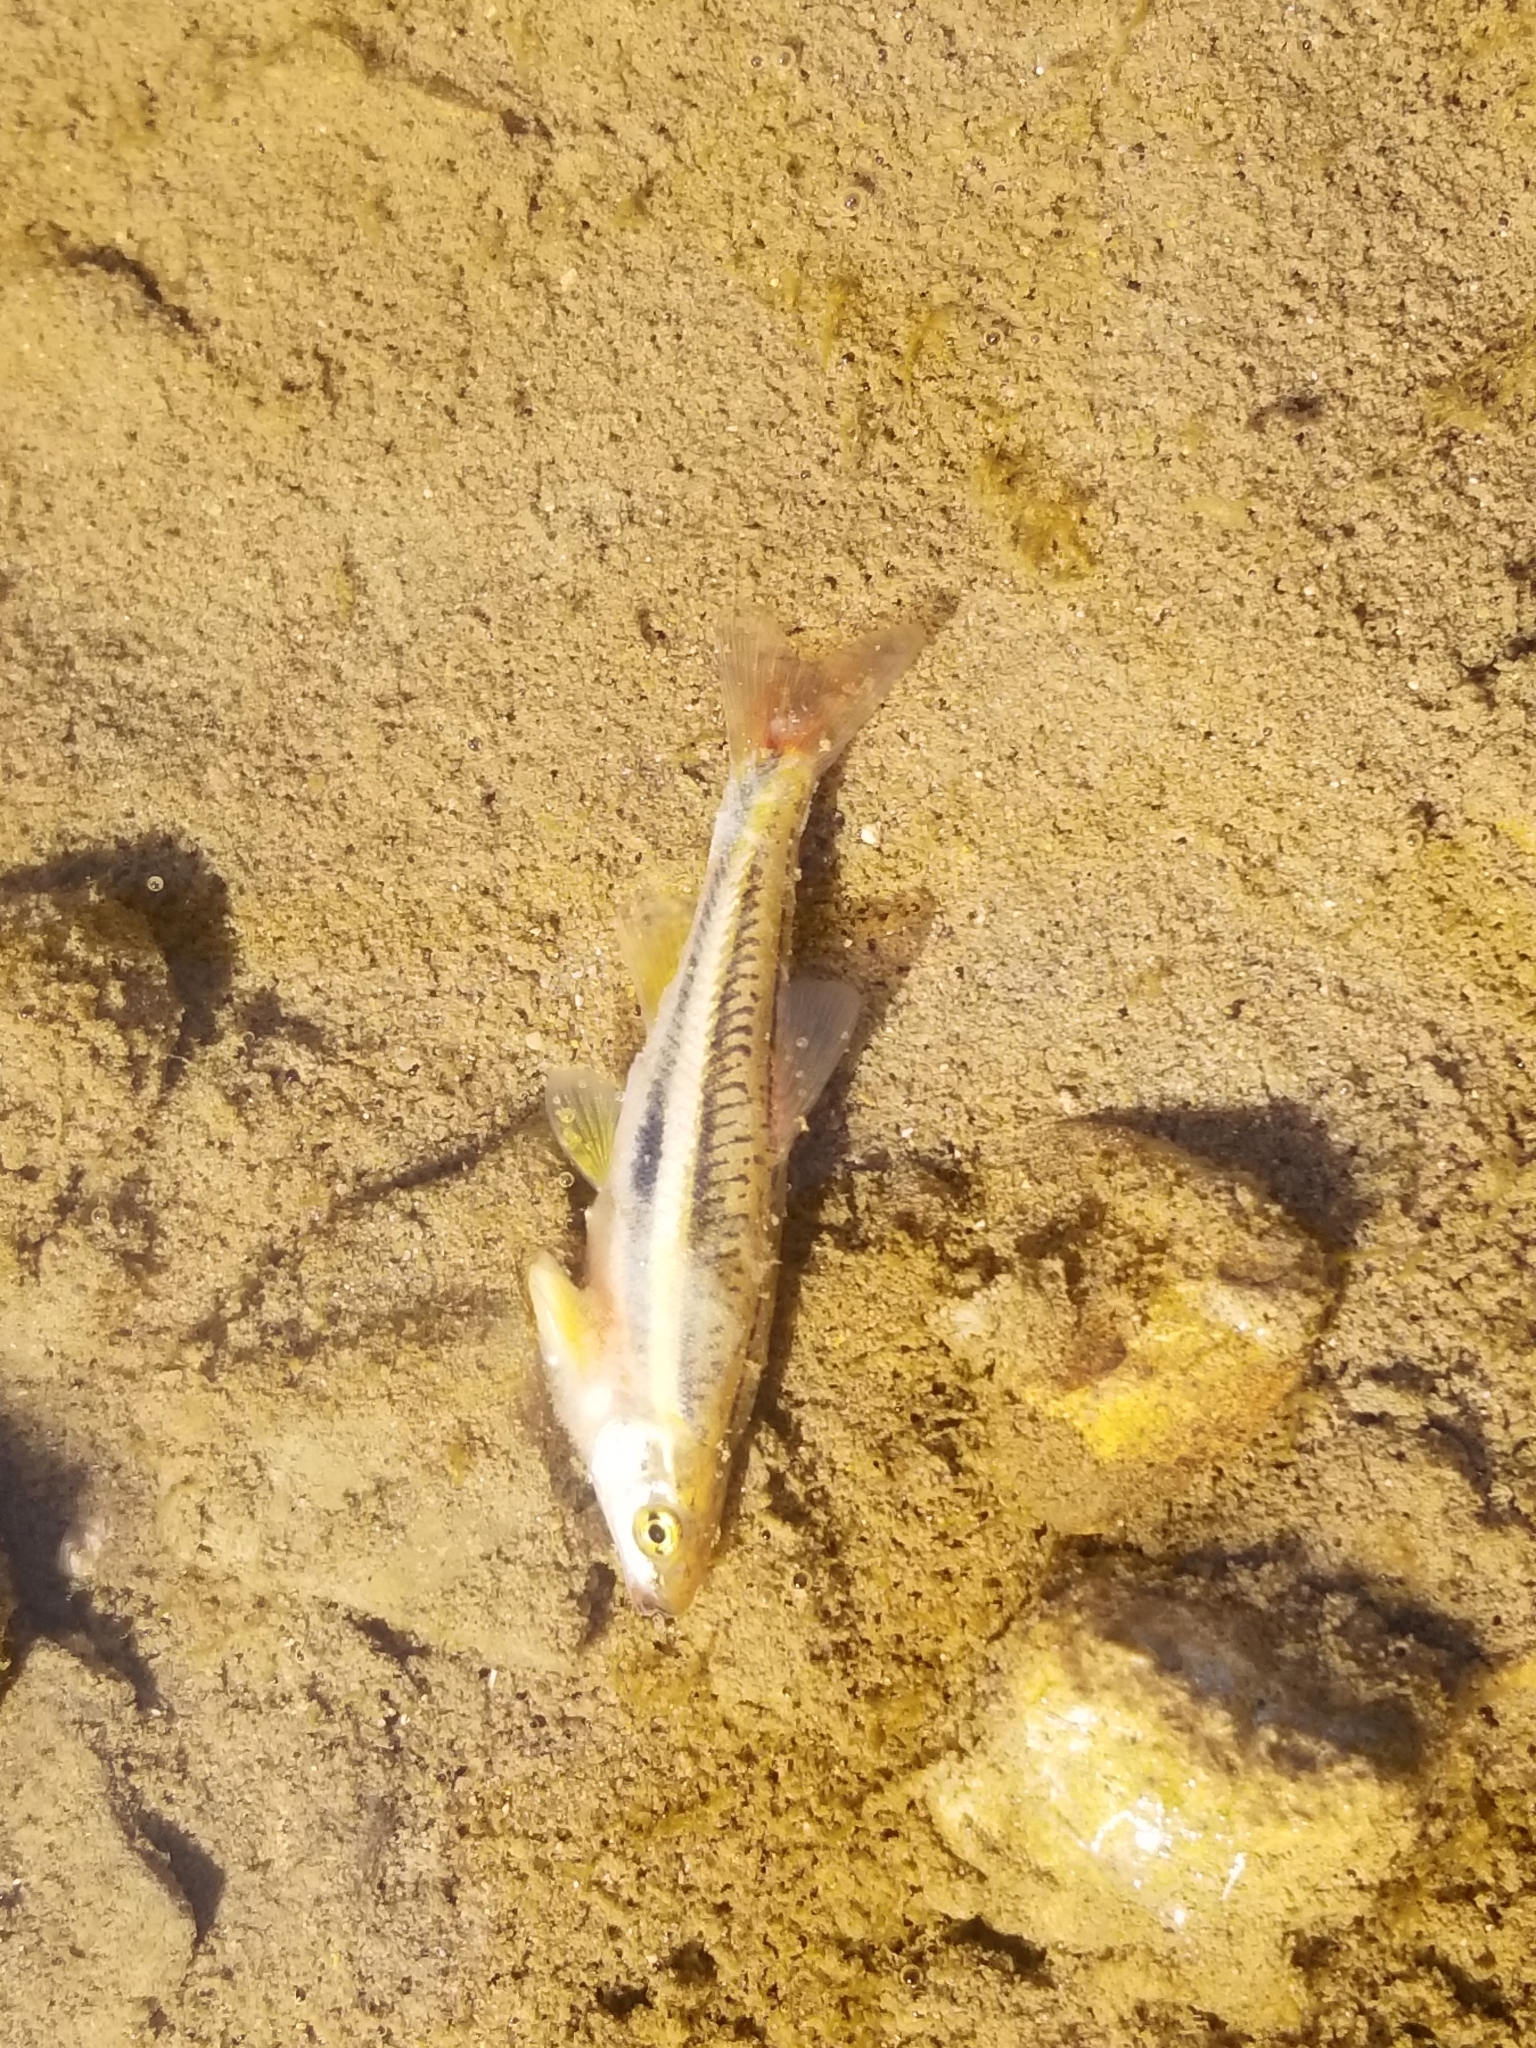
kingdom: Animalia
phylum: Chordata
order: Cypriniformes
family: Cyprinidae
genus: Chrosomus
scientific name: Chrosomus erythrogaster
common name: Southern redbelly dace
